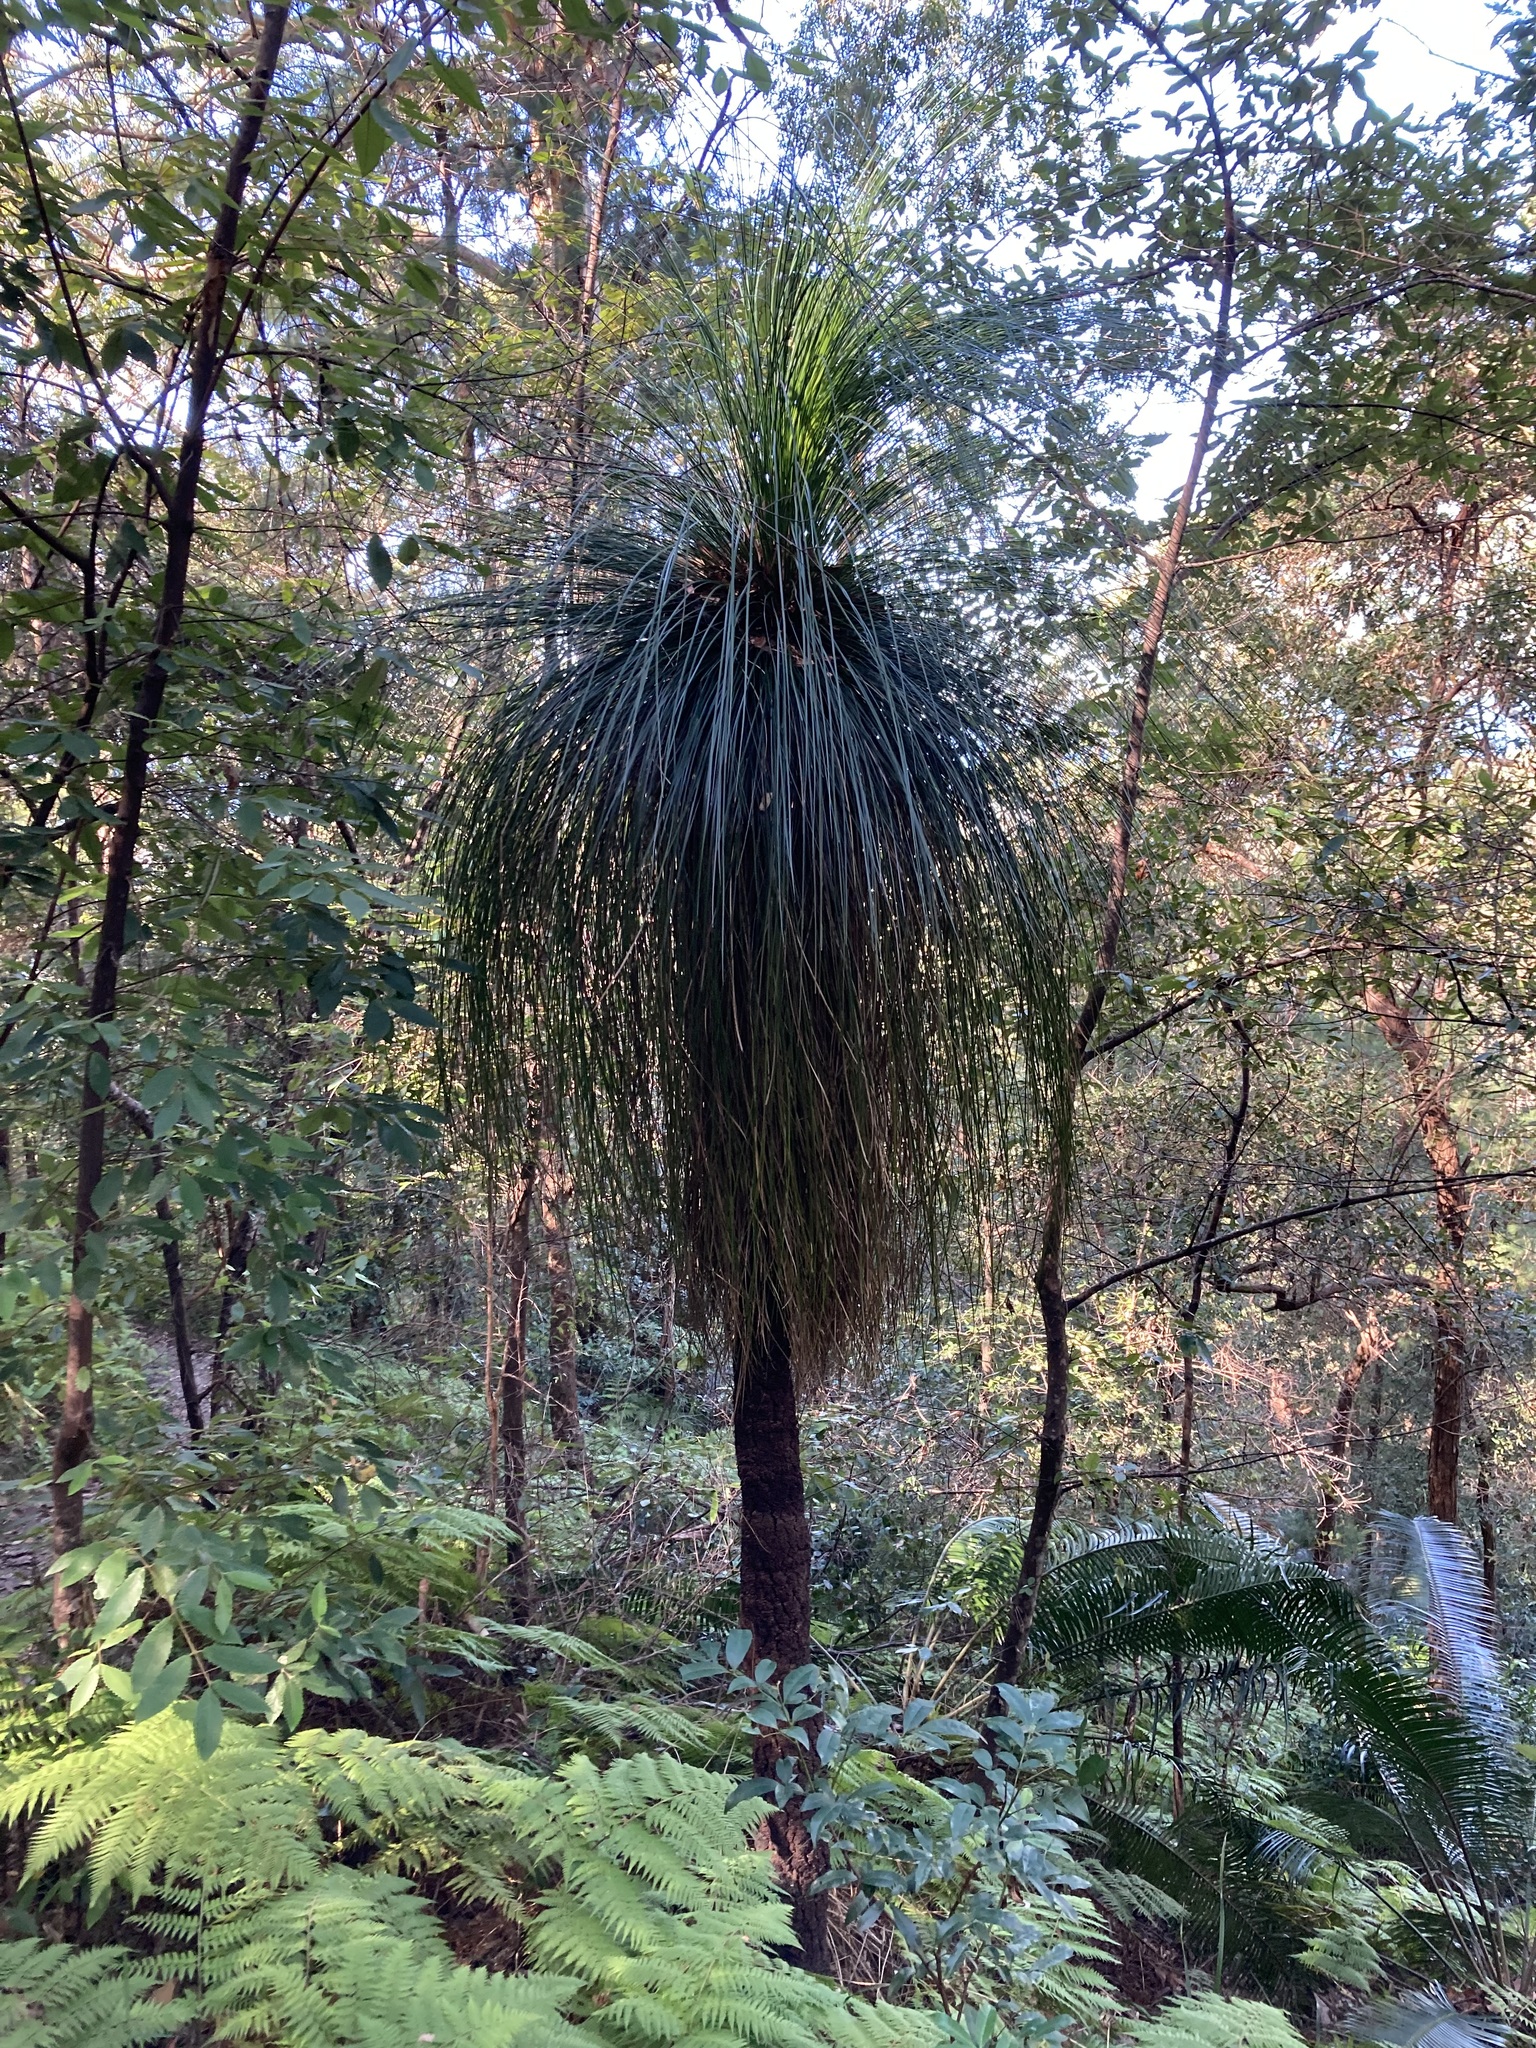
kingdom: Plantae
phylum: Tracheophyta
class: Liliopsida
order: Asparagales
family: Asphodelaceae
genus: Xanthorrhoea
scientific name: Xanthorrhoea malacophylla
